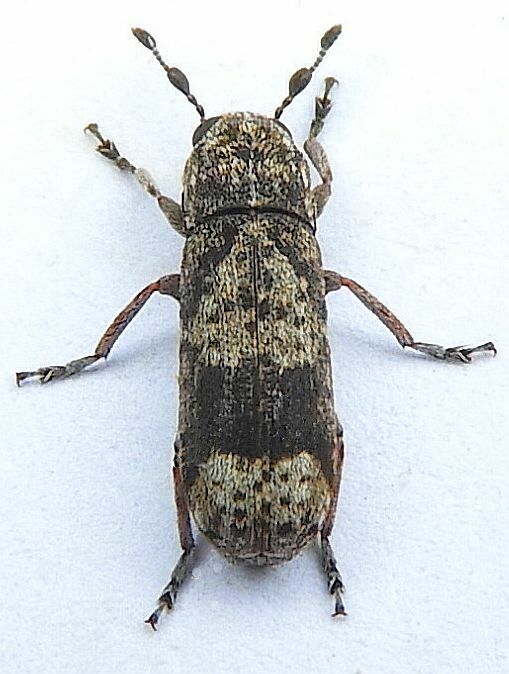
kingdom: Animalia
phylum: Arthropoda
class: Insecta
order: Coleoptera
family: Anthribidae
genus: Ozotomerus
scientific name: Ozotomerus japonicus
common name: Old world fungus weevil
